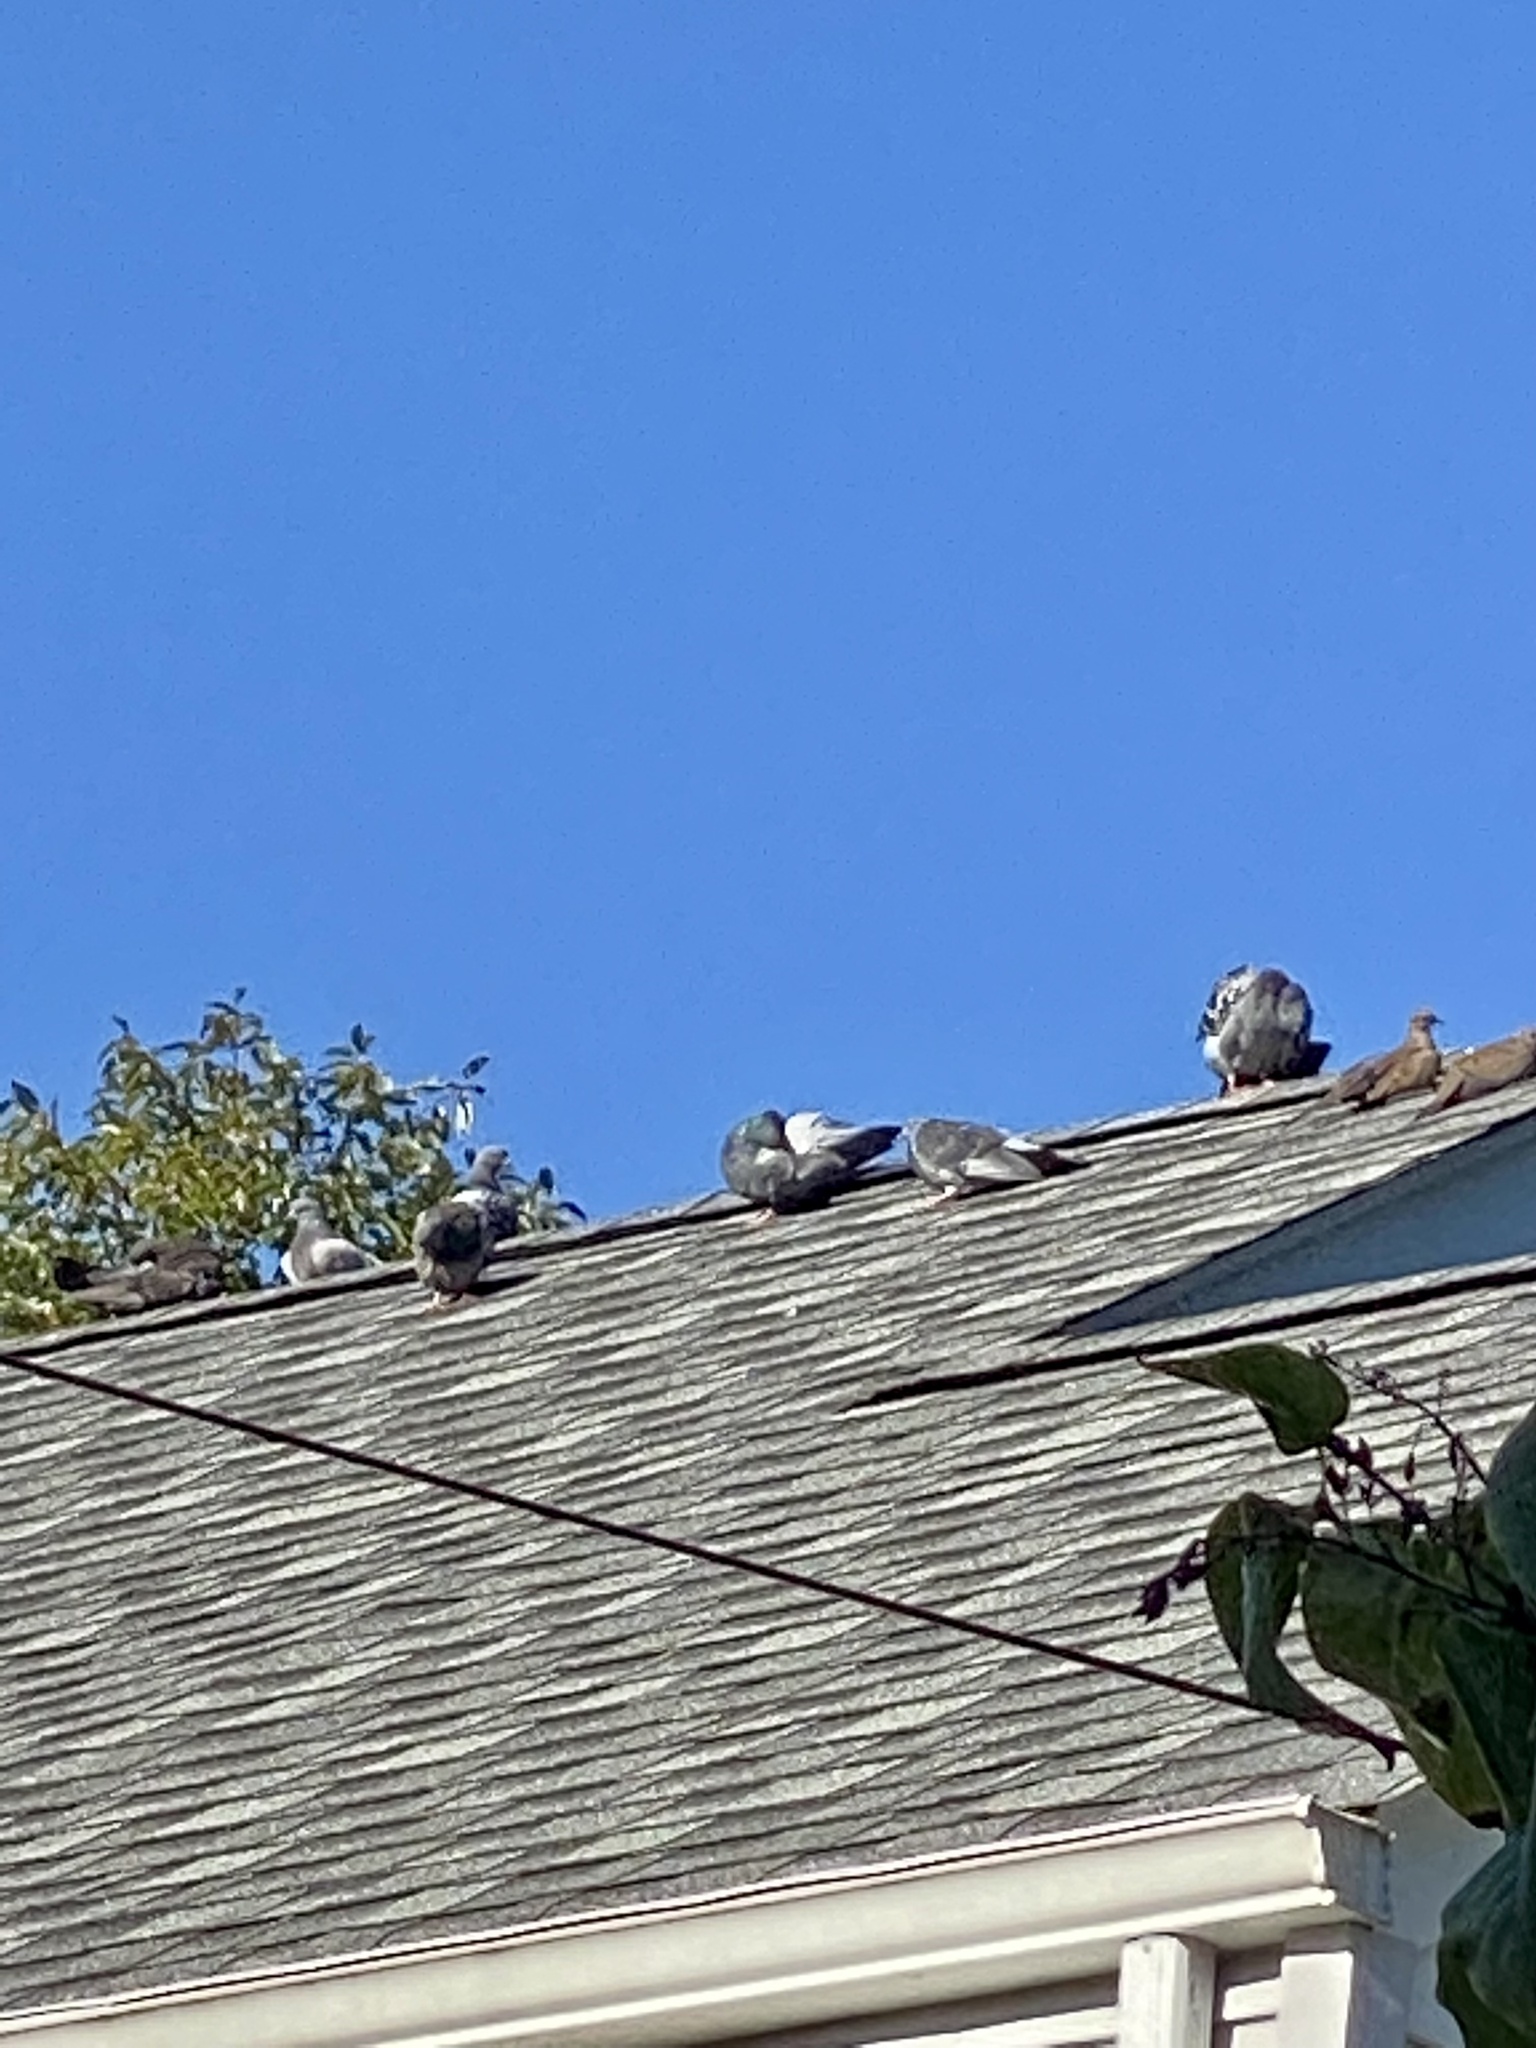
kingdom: Animalia
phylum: Chordata
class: Aves
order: Columbiformes
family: Columbidae
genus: Columba
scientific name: Columba livia
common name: Rock pigeon
